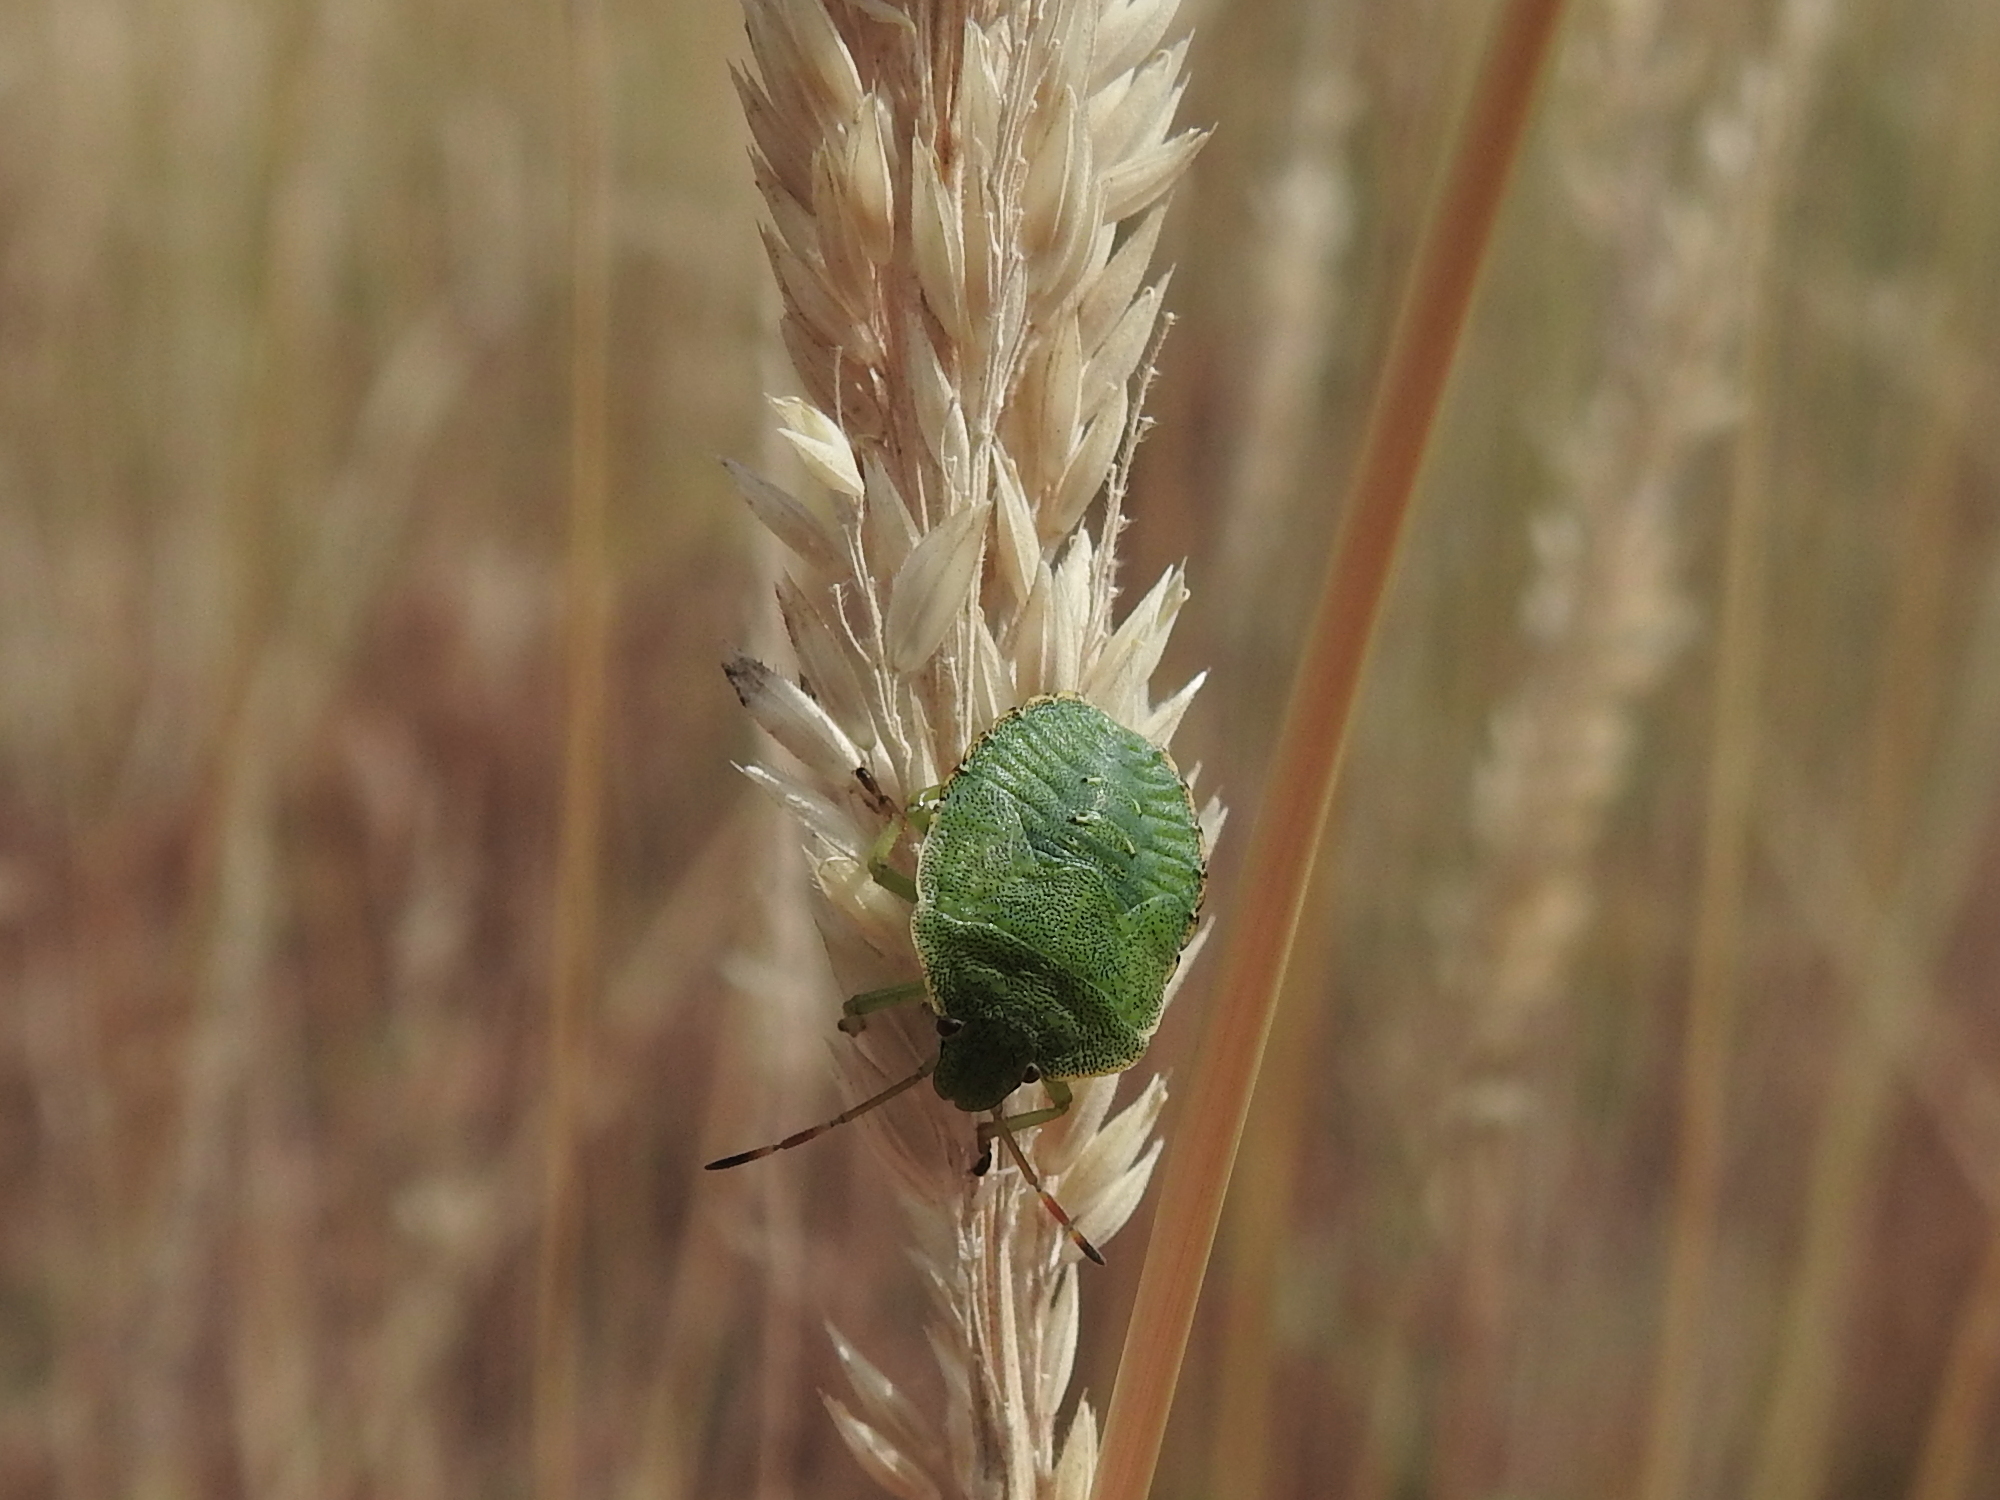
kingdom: Animalia
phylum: Arthropoda
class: Insecta
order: Hemiptera
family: Pentatomidae
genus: Palomena
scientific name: Palomena prasina
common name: Green shieldbug
